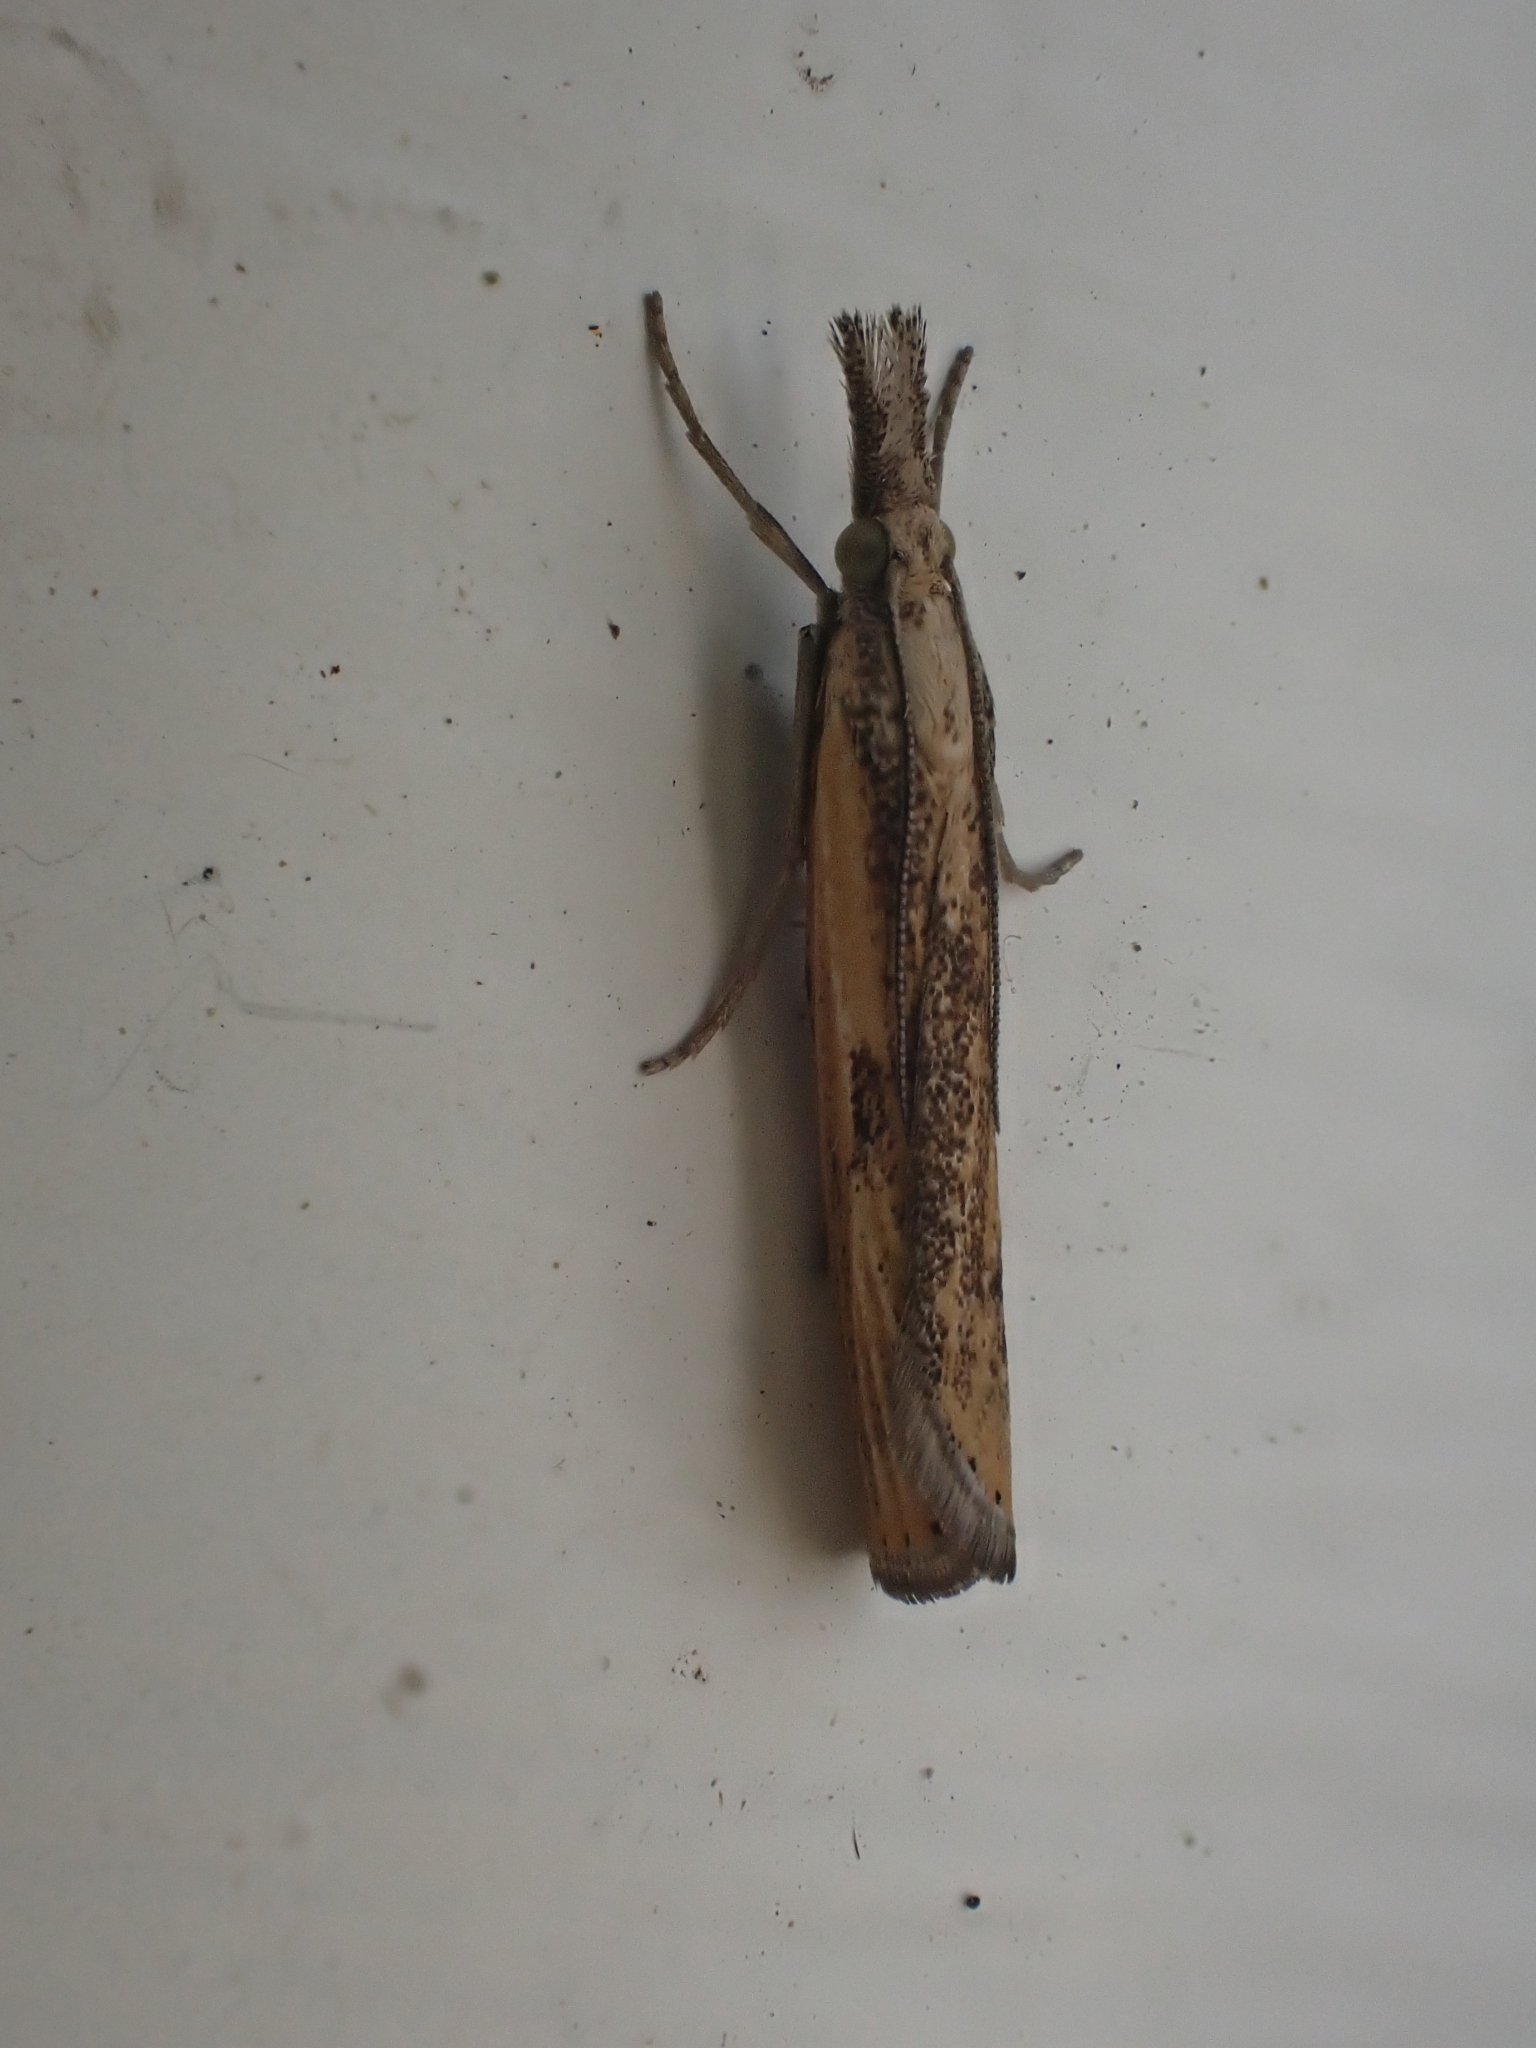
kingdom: Animalia
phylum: Arthropoda
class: Insecta
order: Lepidoptera
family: Crambidae
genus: Agriphila
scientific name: Agriphila inquinatella
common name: Barred grass-veneer
